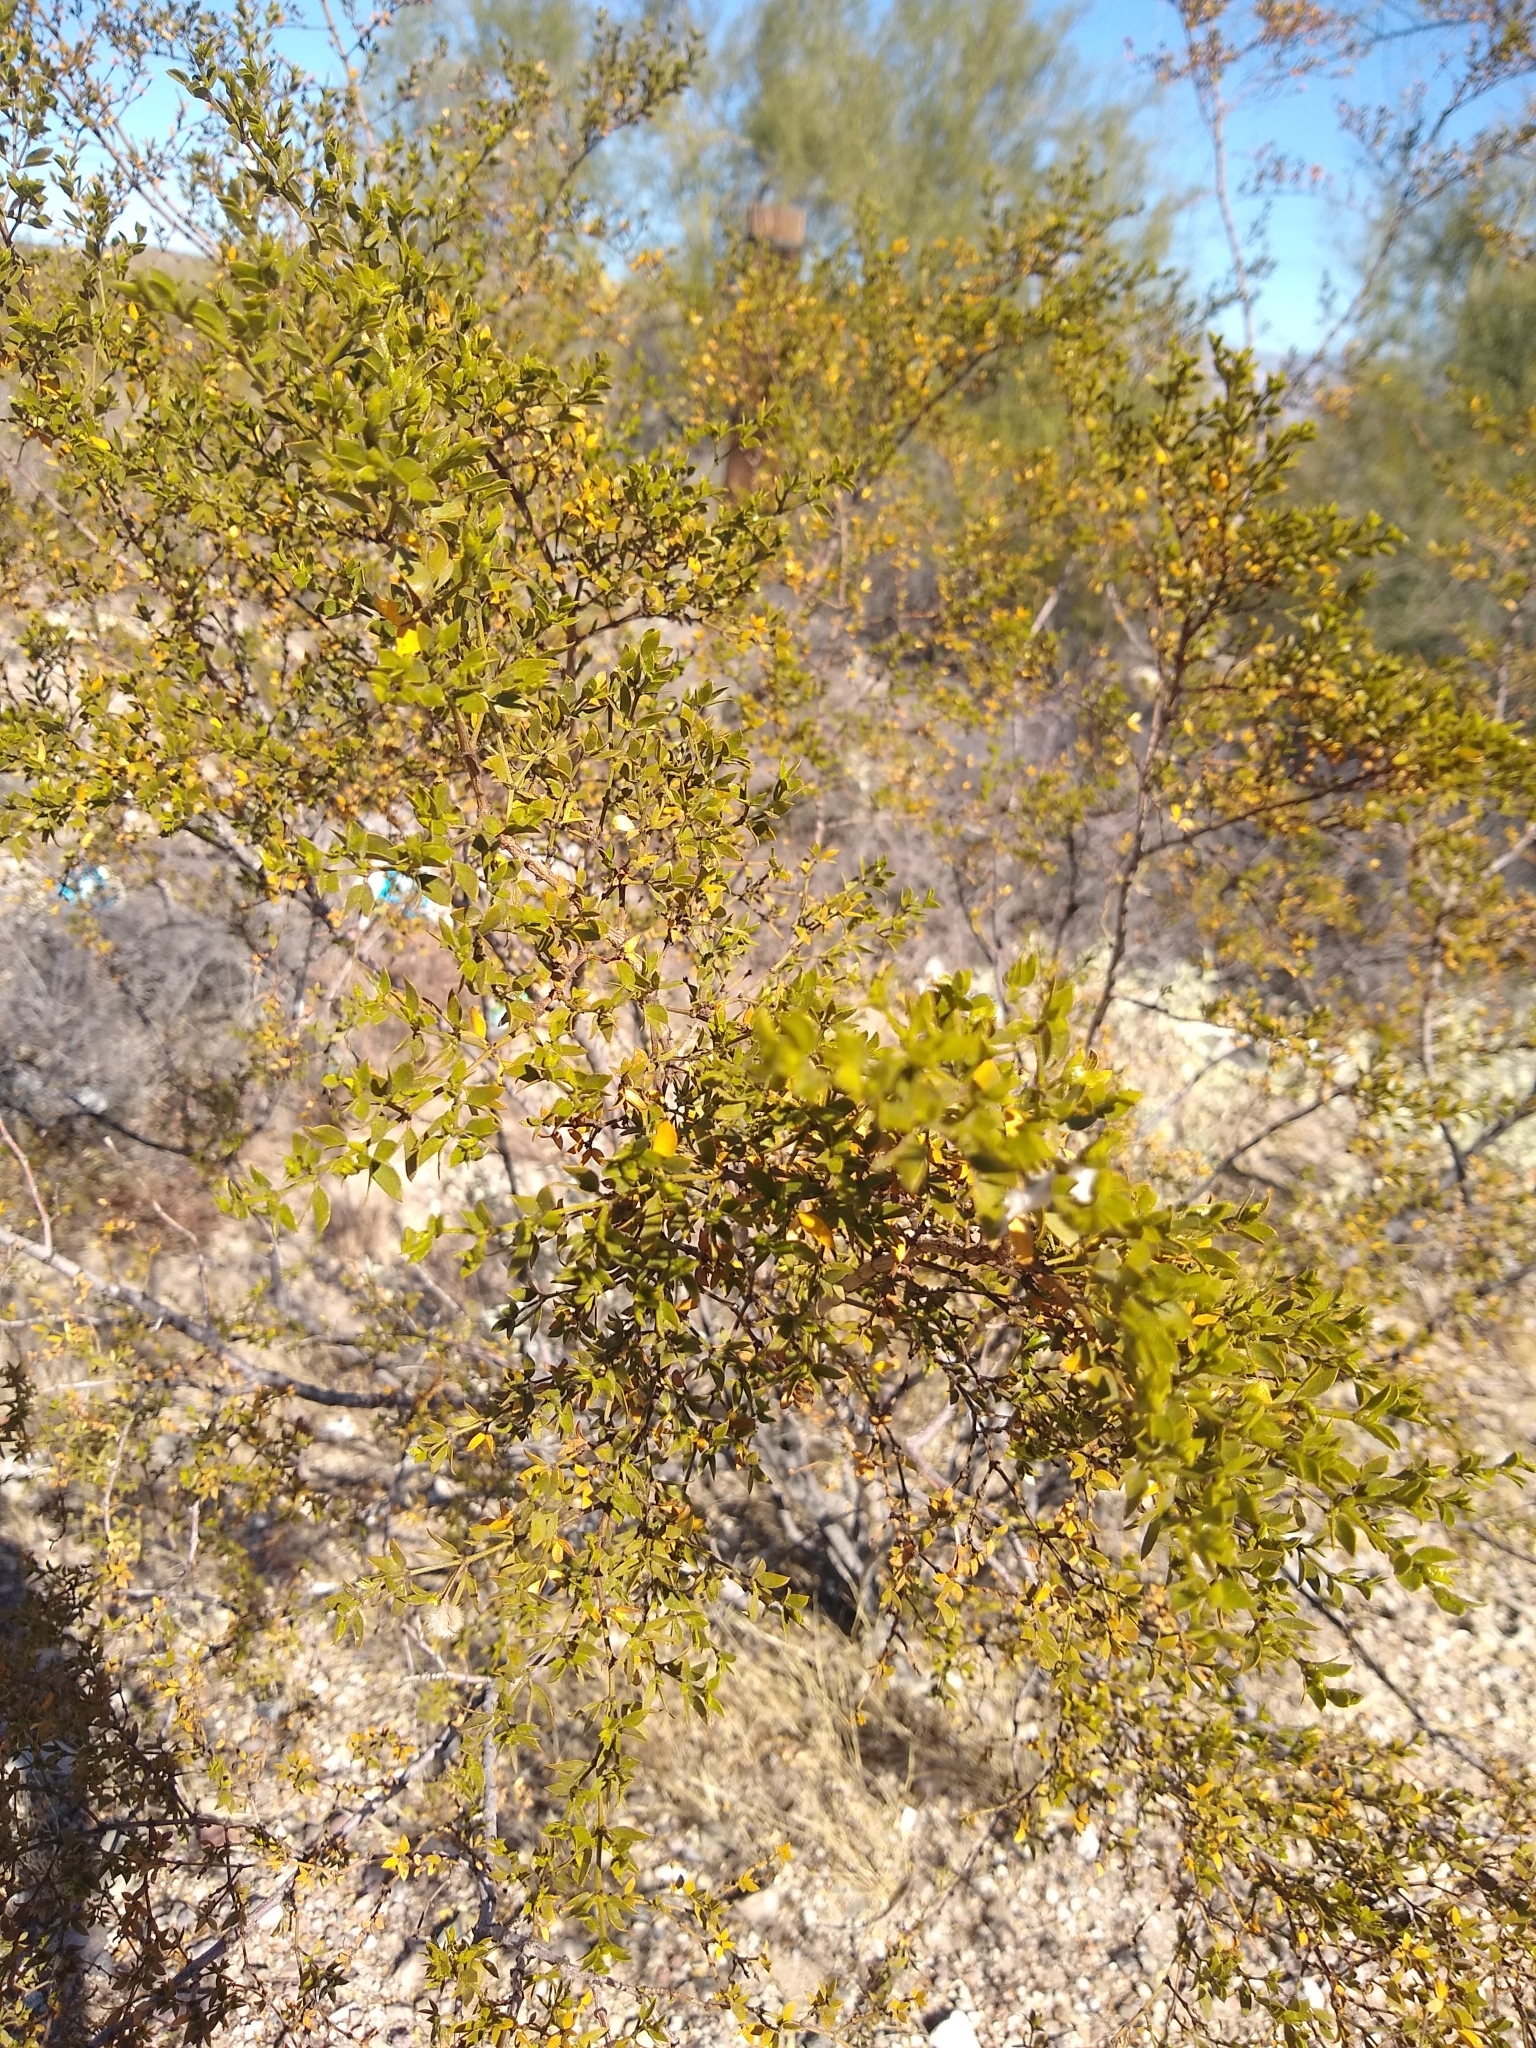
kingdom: Plantae
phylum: Tracheophyta
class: Magnoliopsida
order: Zygophyllales
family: Zygophyllaceae
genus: Larrea
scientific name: Larrea tridentata
